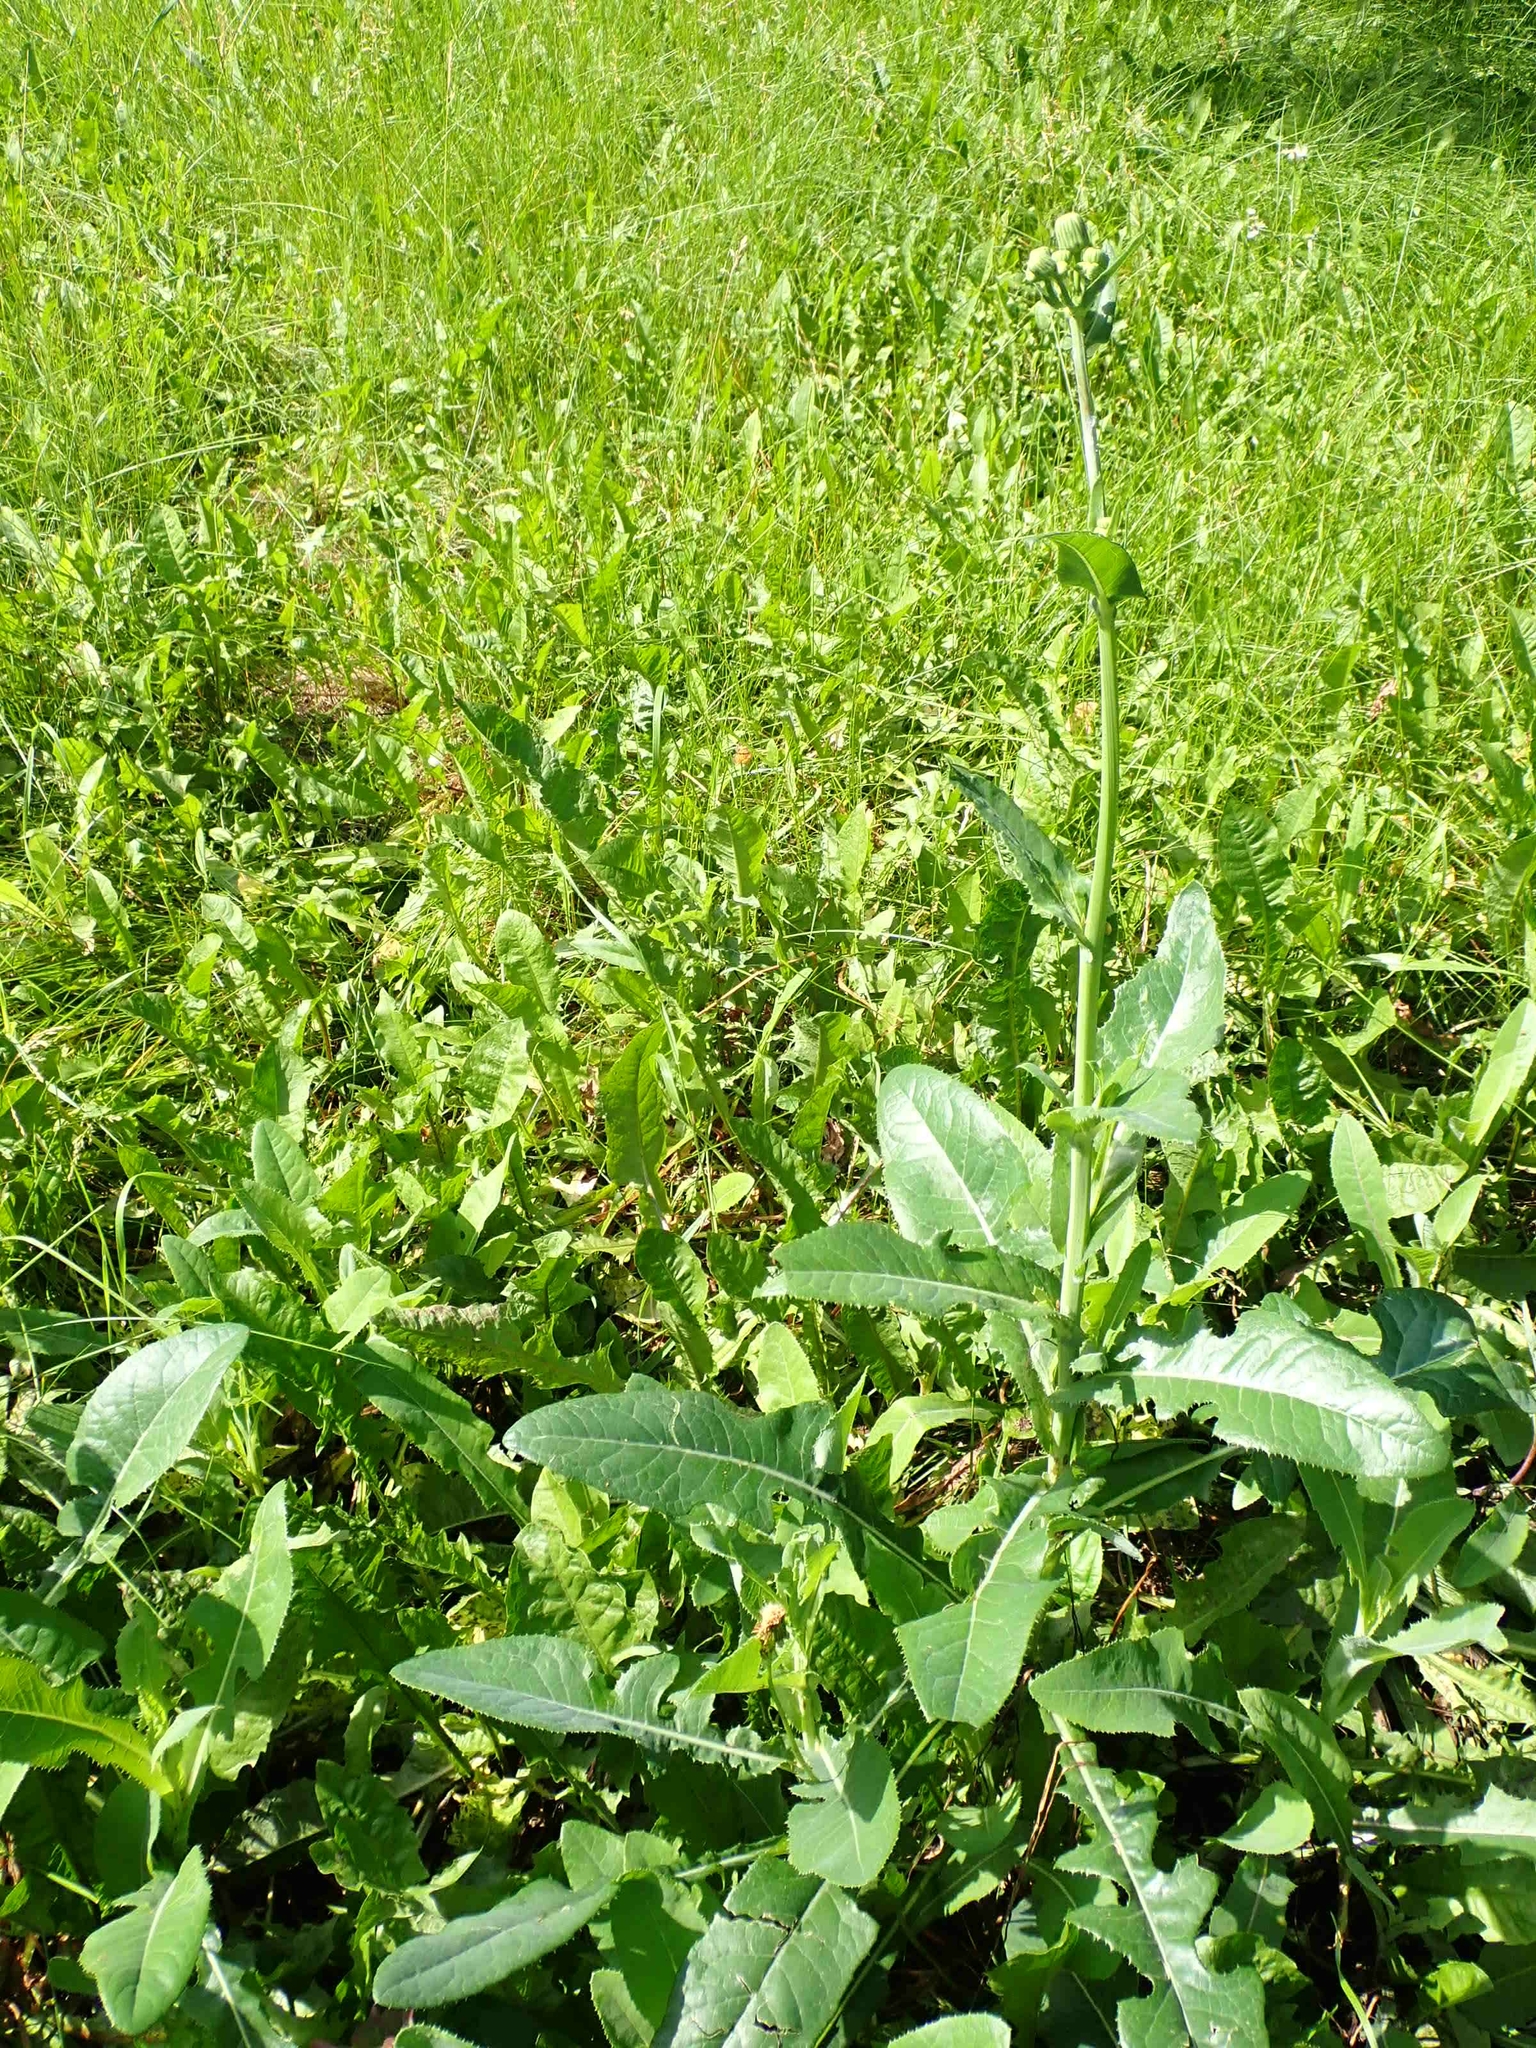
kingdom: Plantae
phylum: Tracheophyta
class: Magnoliopsida
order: Asterales
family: Asteraceae
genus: Sonchus
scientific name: Sonchus arvensis
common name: Perennial sow-thistle
